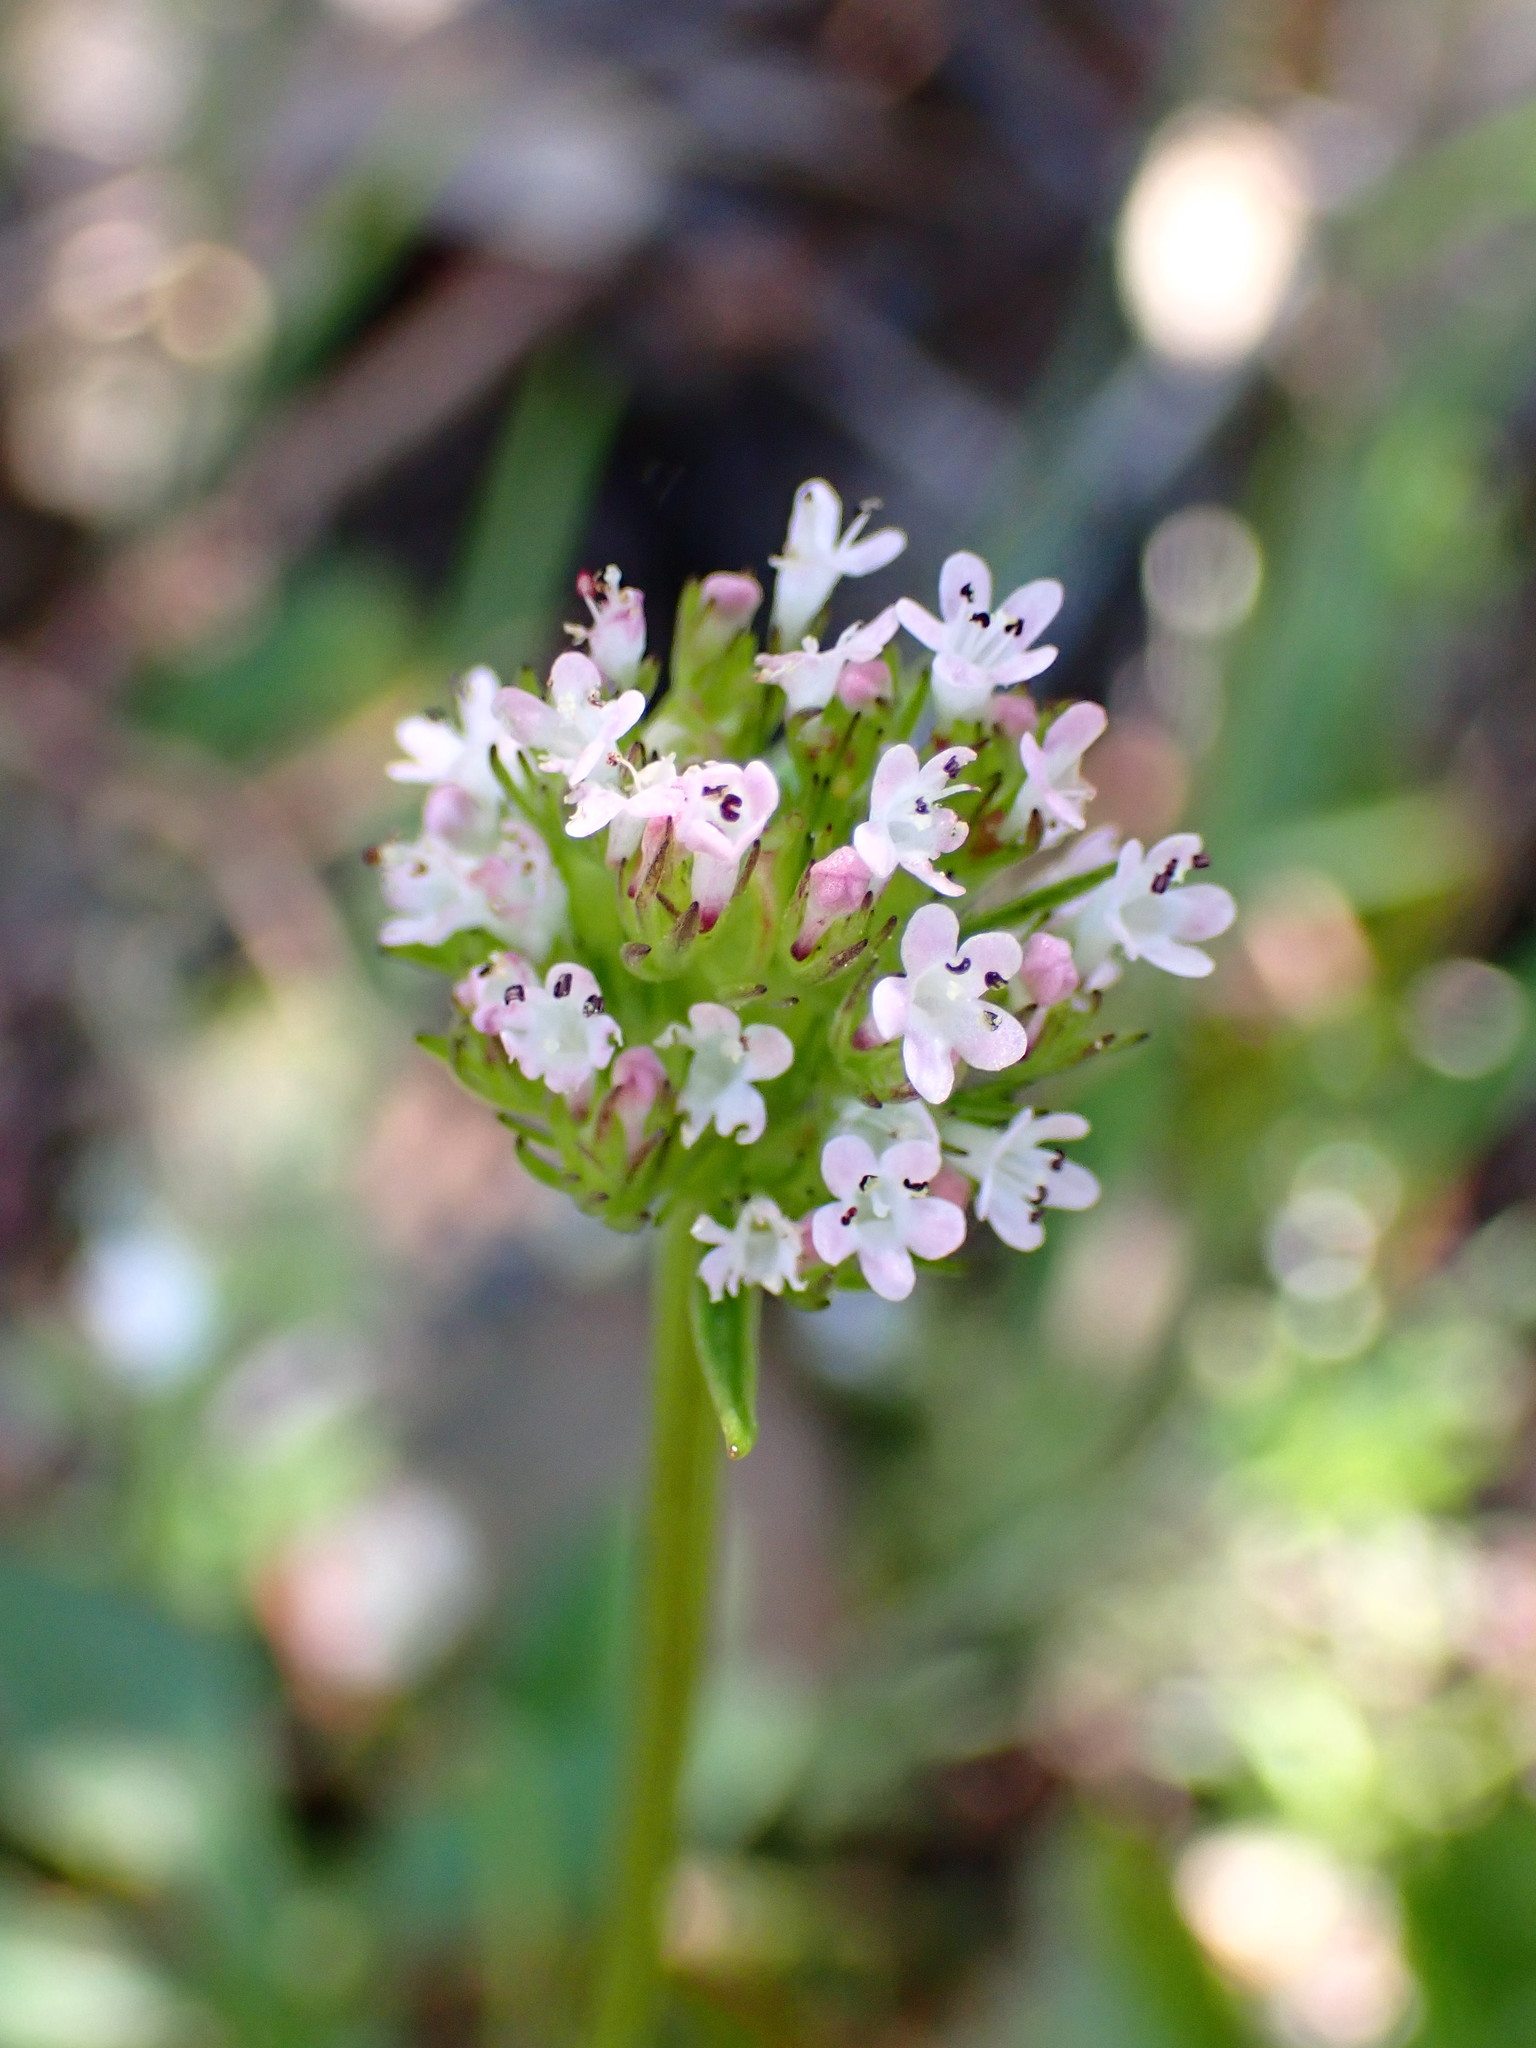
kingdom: Plantae
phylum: Tracheophyta
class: Magnoliopsida
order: Dipsacales
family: Caprifoliaceae
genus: Plectritis
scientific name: Plectritis macroptera
